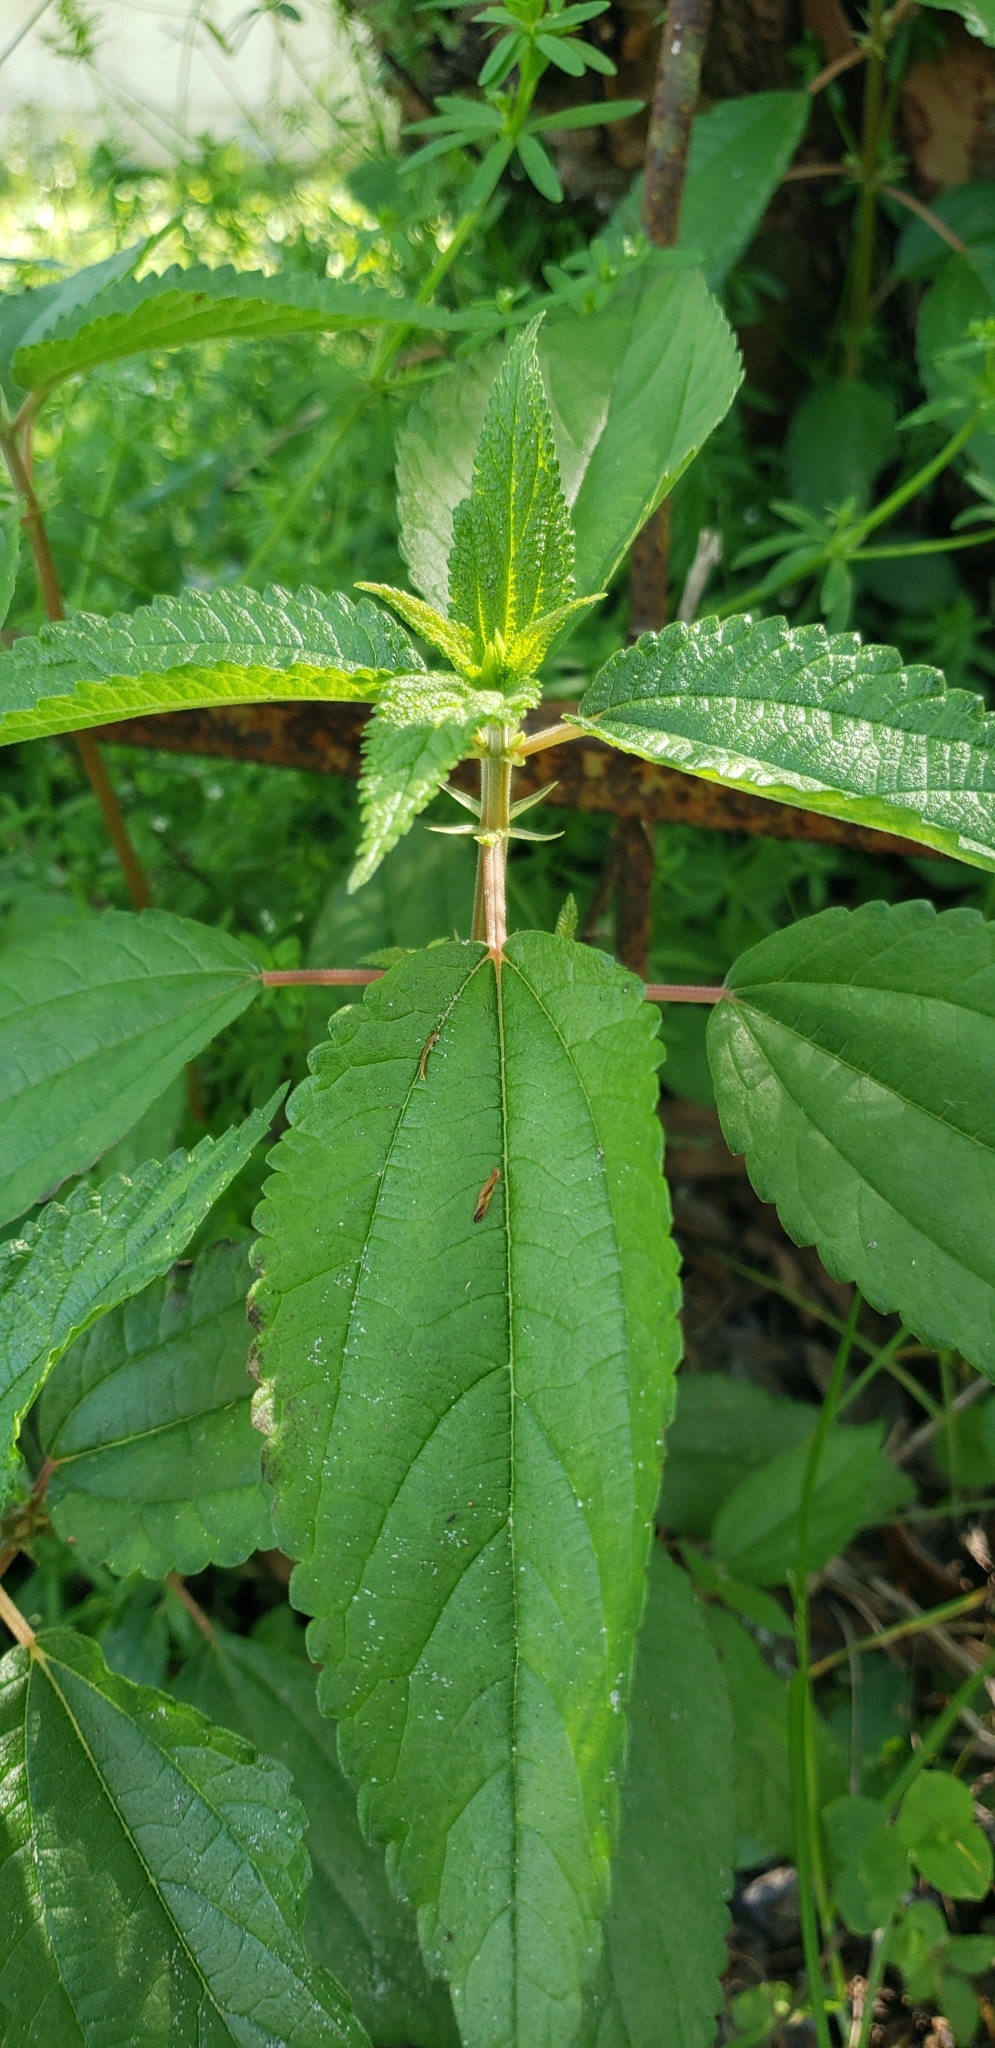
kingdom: Plantae
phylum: Tracheophyta
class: Magnoliopsida
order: Rosales
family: Urticaceae
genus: Boehmeria
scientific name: Boehmeria cylindrica
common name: Bog-hemp
